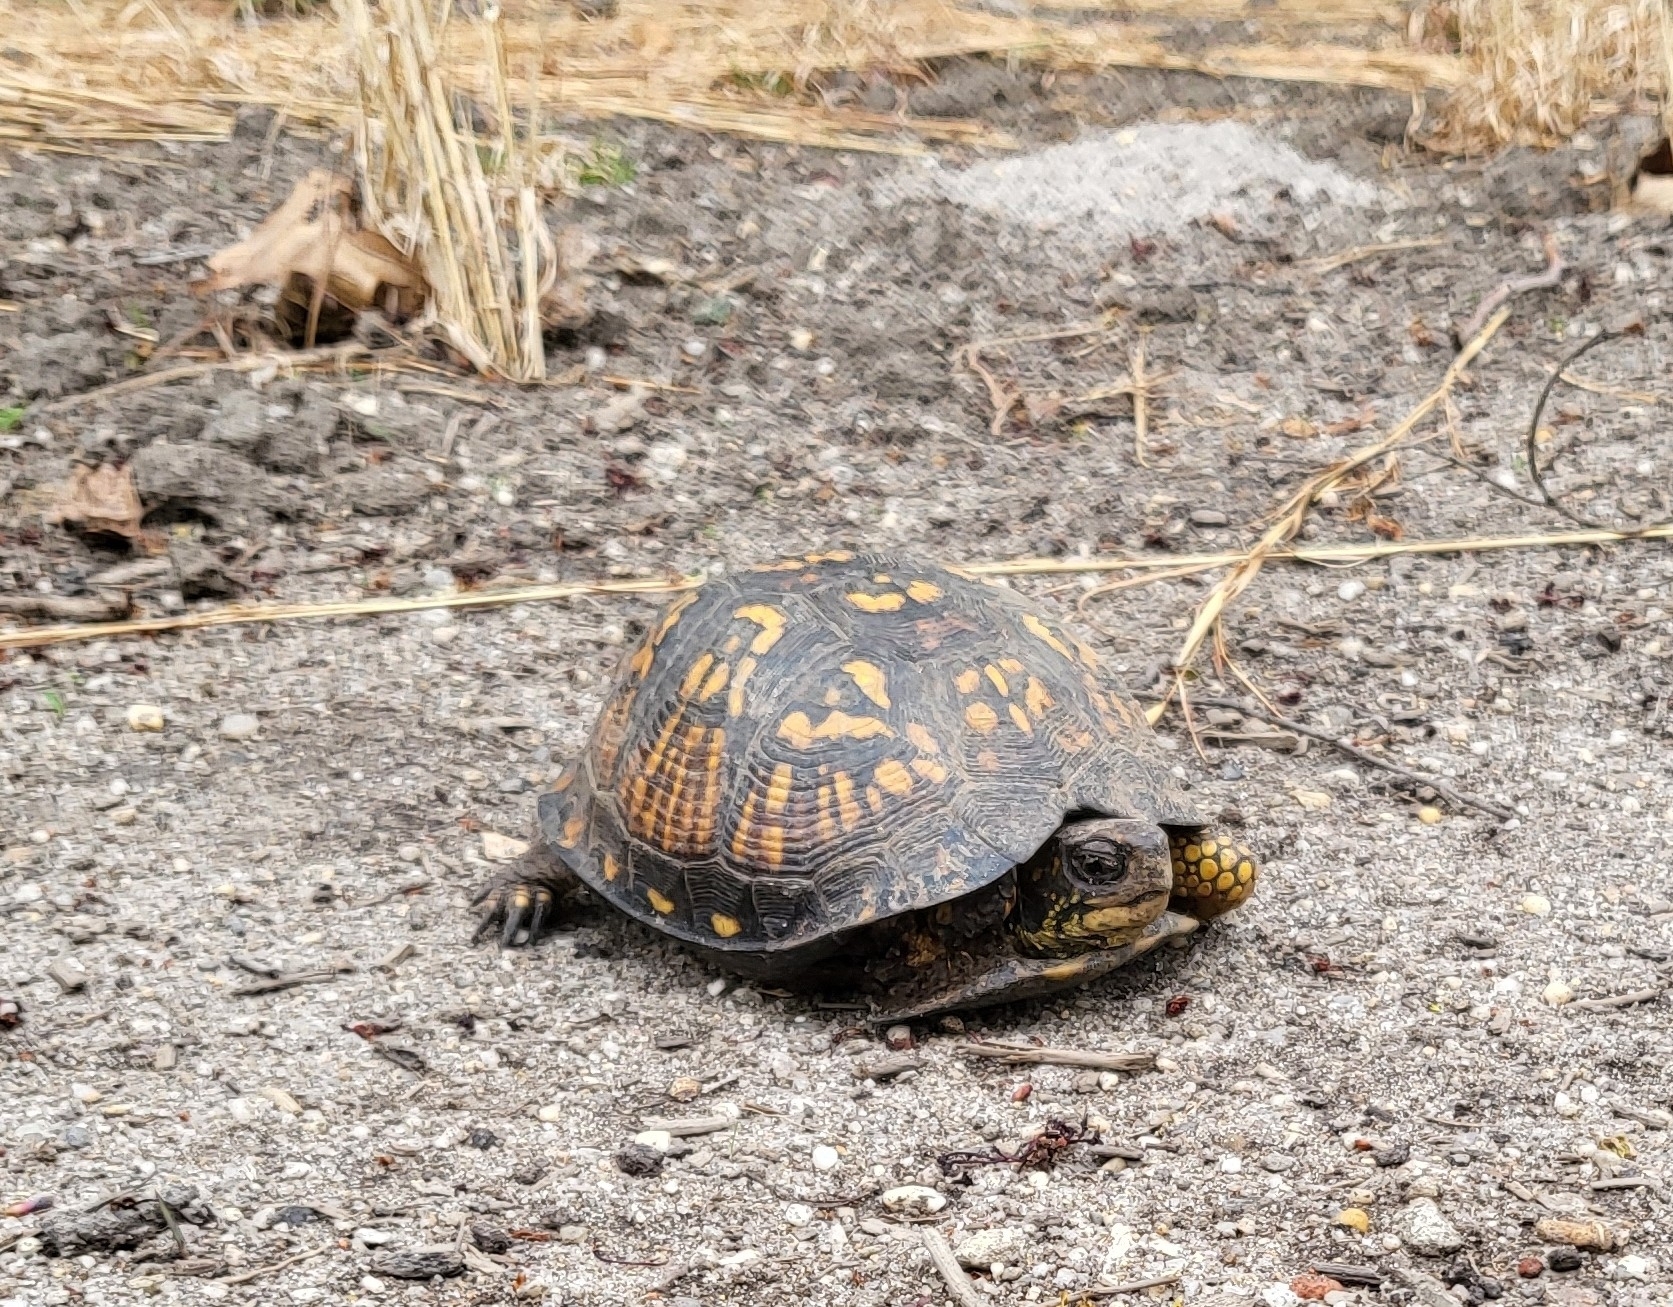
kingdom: Animalia
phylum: Chordata
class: Testudines
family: Emydidae
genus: Terrapene
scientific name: Terrapene carolina
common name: Common box turtle
